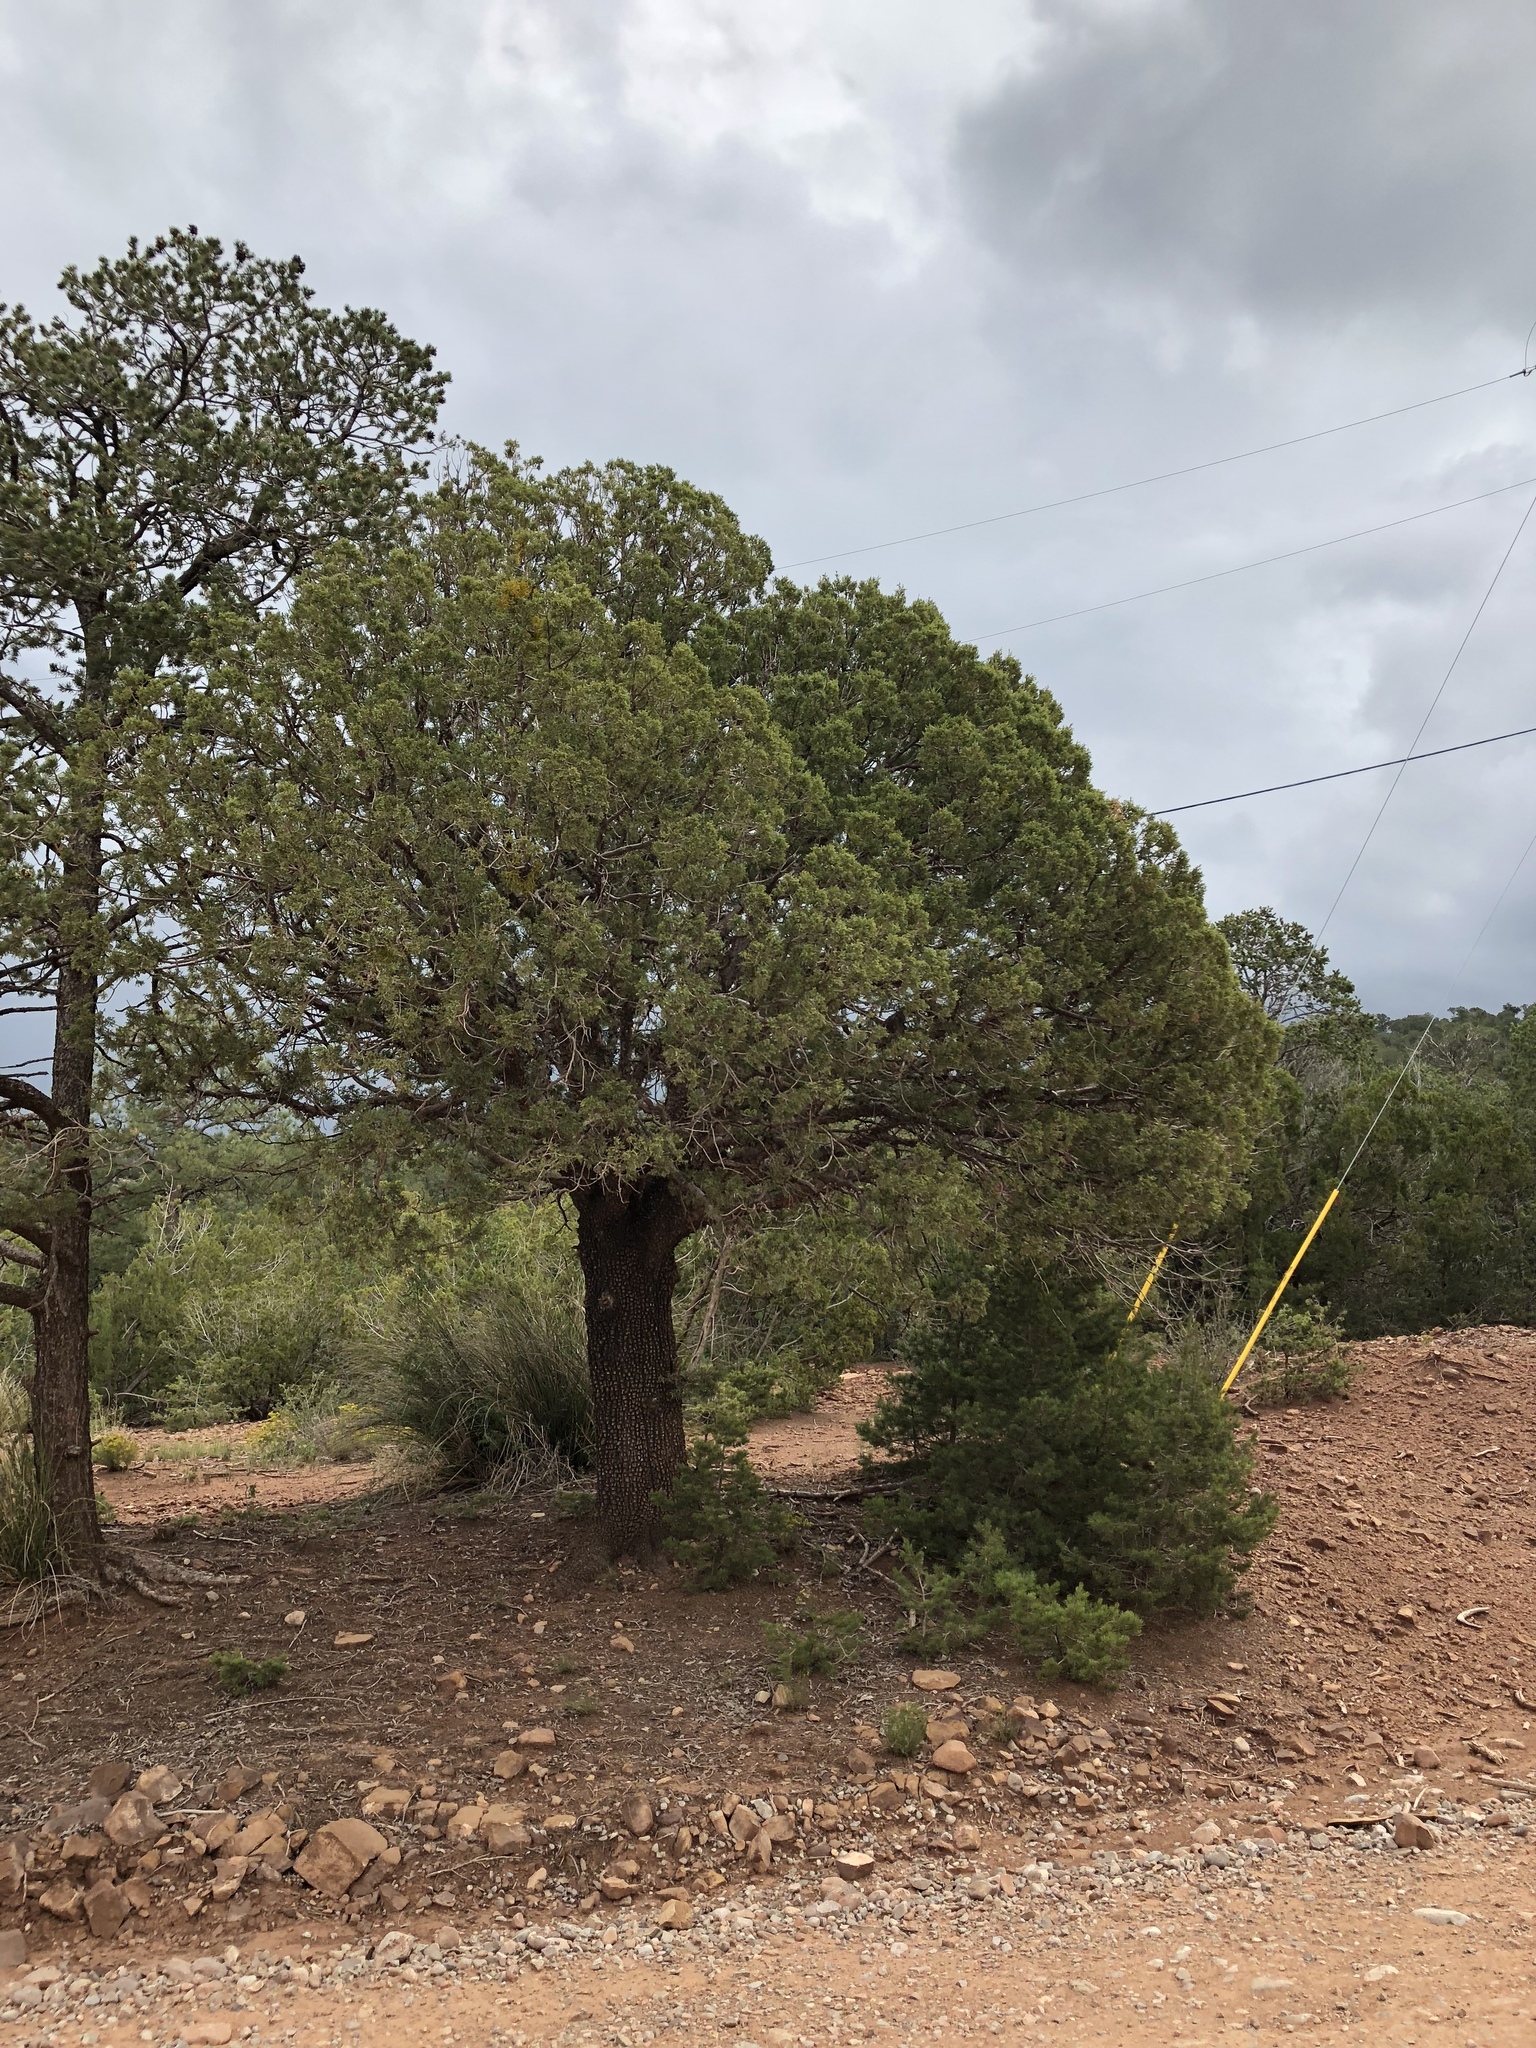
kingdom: Plantae
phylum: Tracheophyta
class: Pinopsida
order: Pinales
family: Pinaceae
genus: Pinus
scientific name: Pinus edulis
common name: Colorado pinyon
